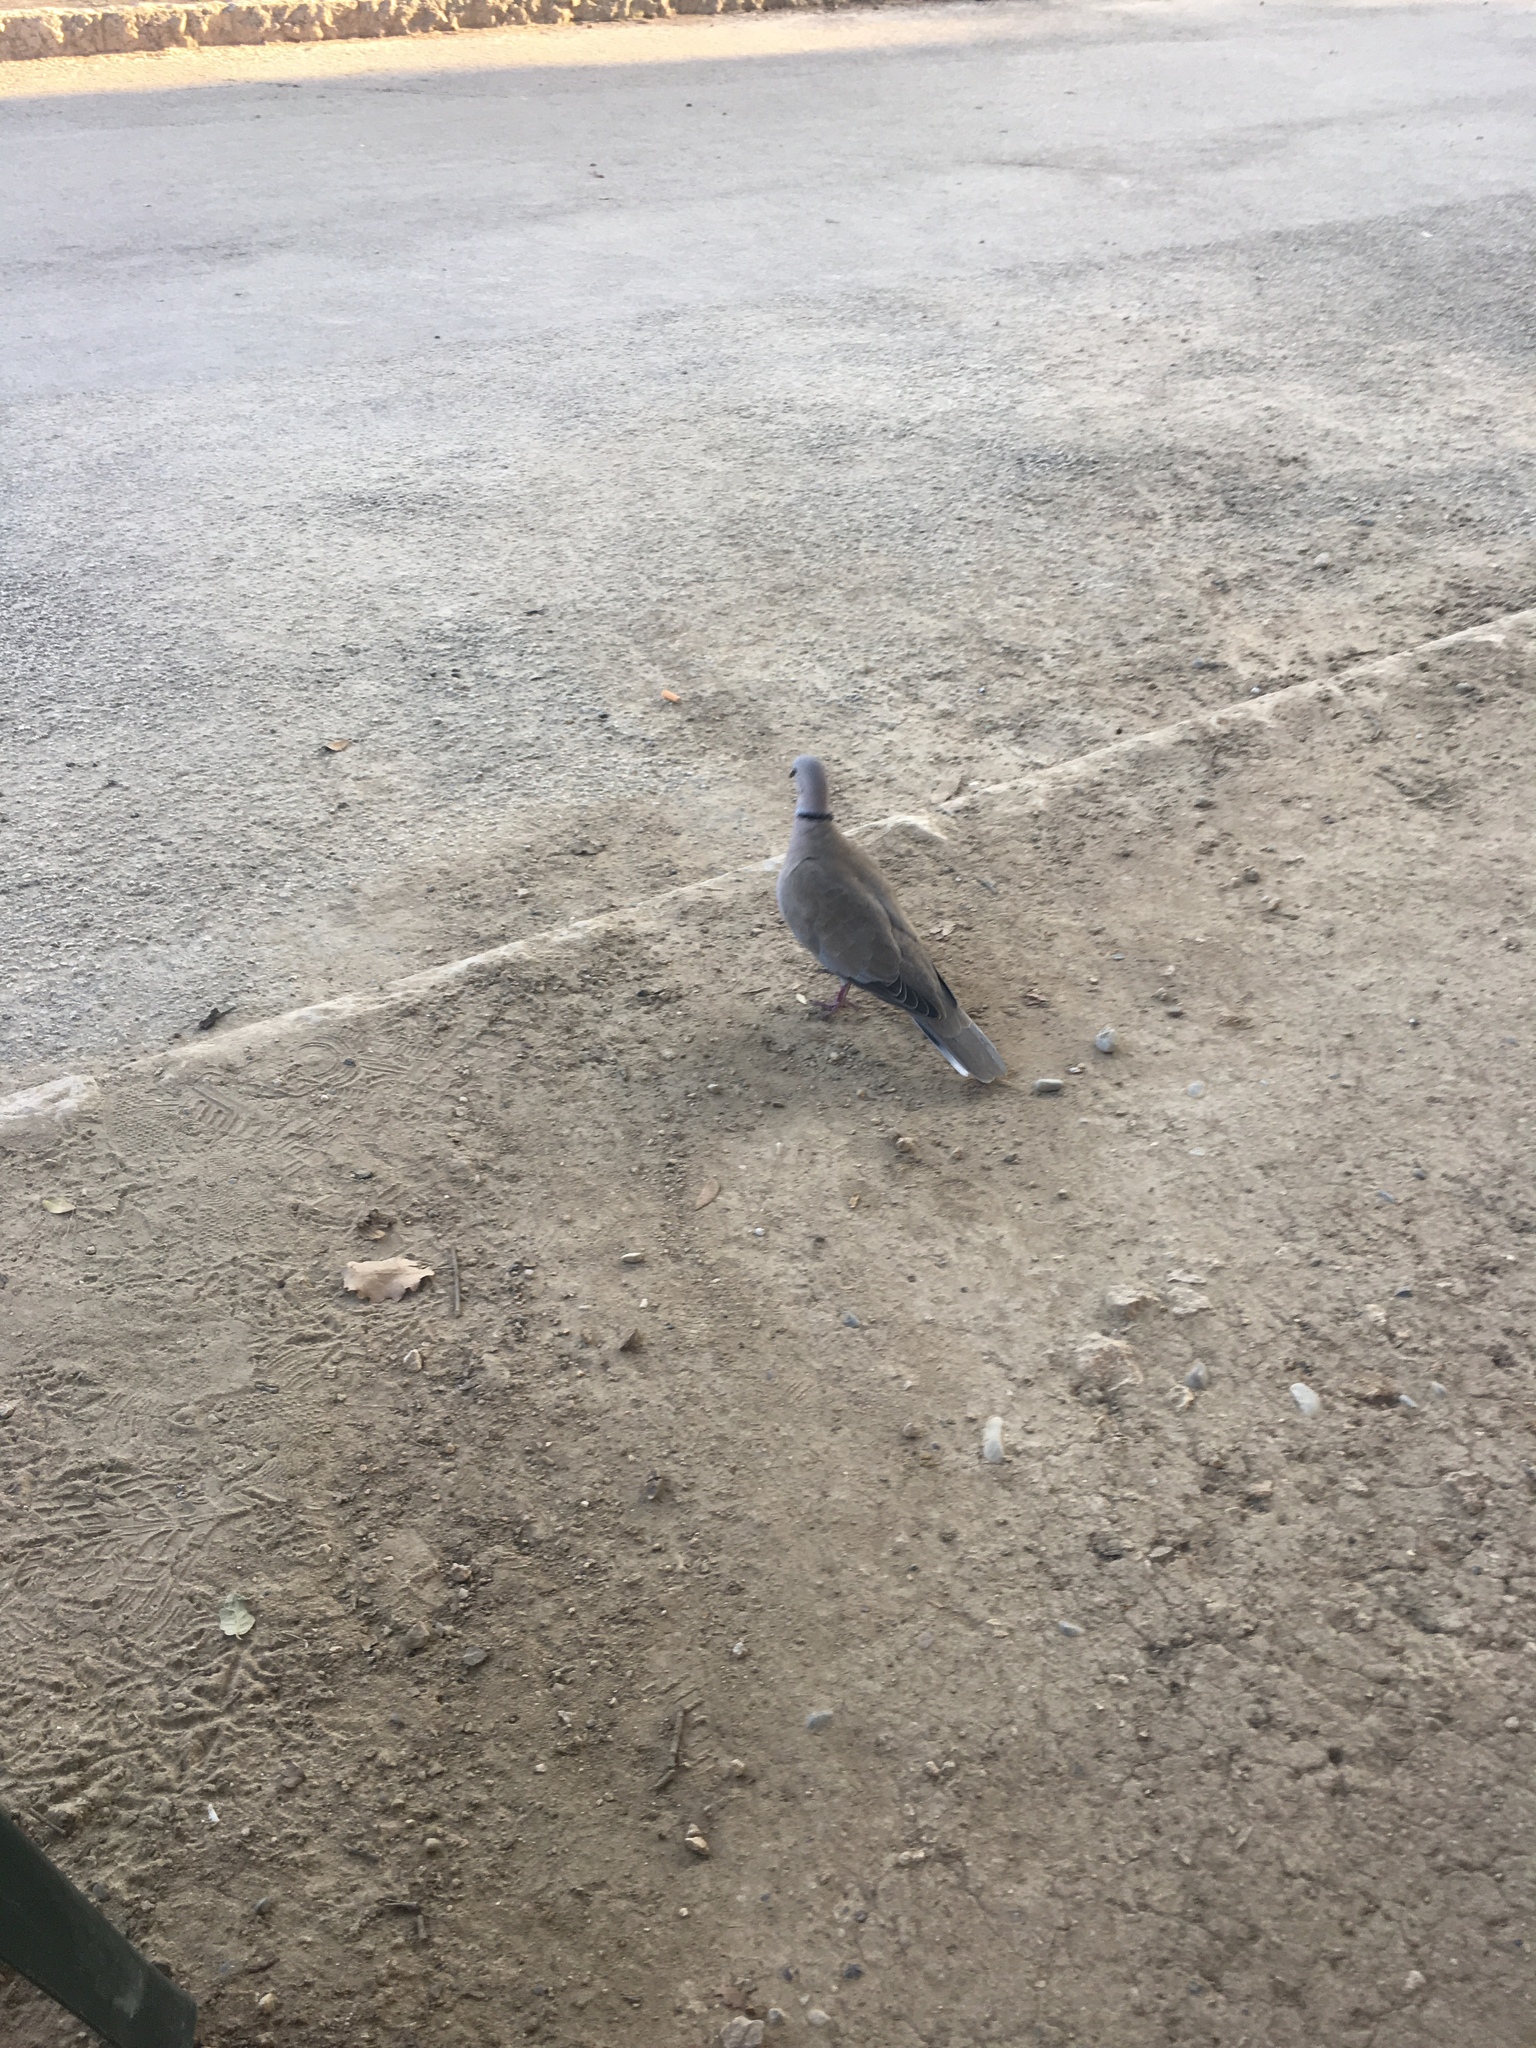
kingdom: Animalia
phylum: Chordata
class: Aves
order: Columbiformes
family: Columbidae
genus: Streptopelia
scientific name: Streptopelia decaocto
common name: Eurasian collared dove
